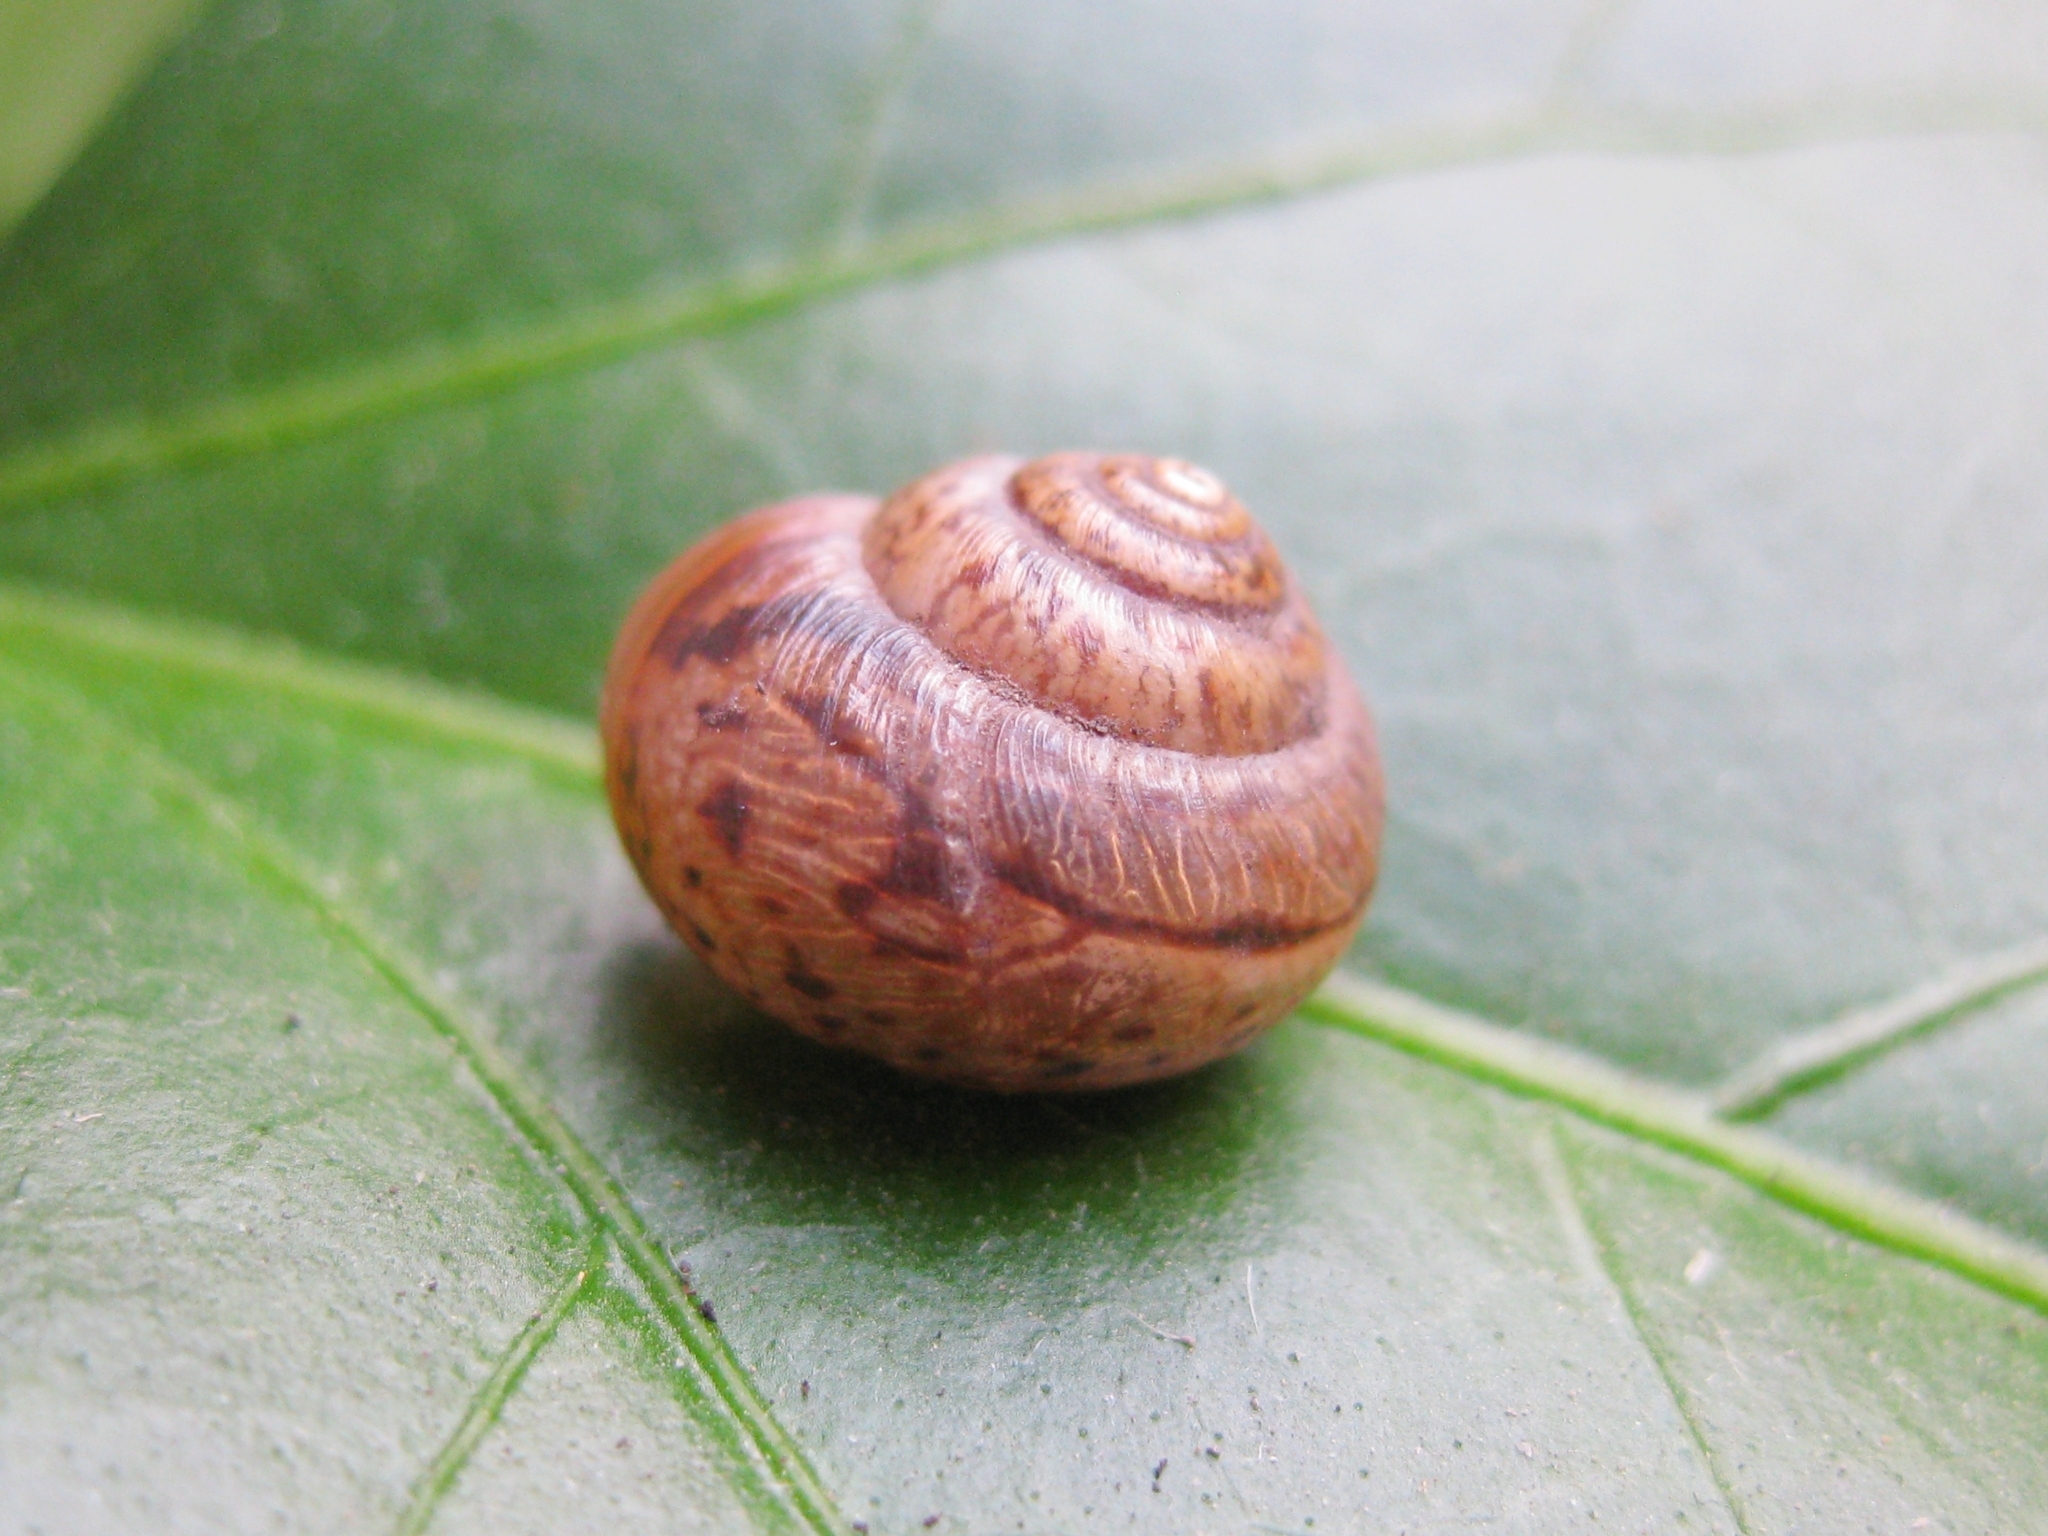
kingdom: Animalia
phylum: Mollusca
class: Gastropoda
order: Stylommatophora
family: Hygromiidae
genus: Stenomphalia
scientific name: Stenomphalia selecta
